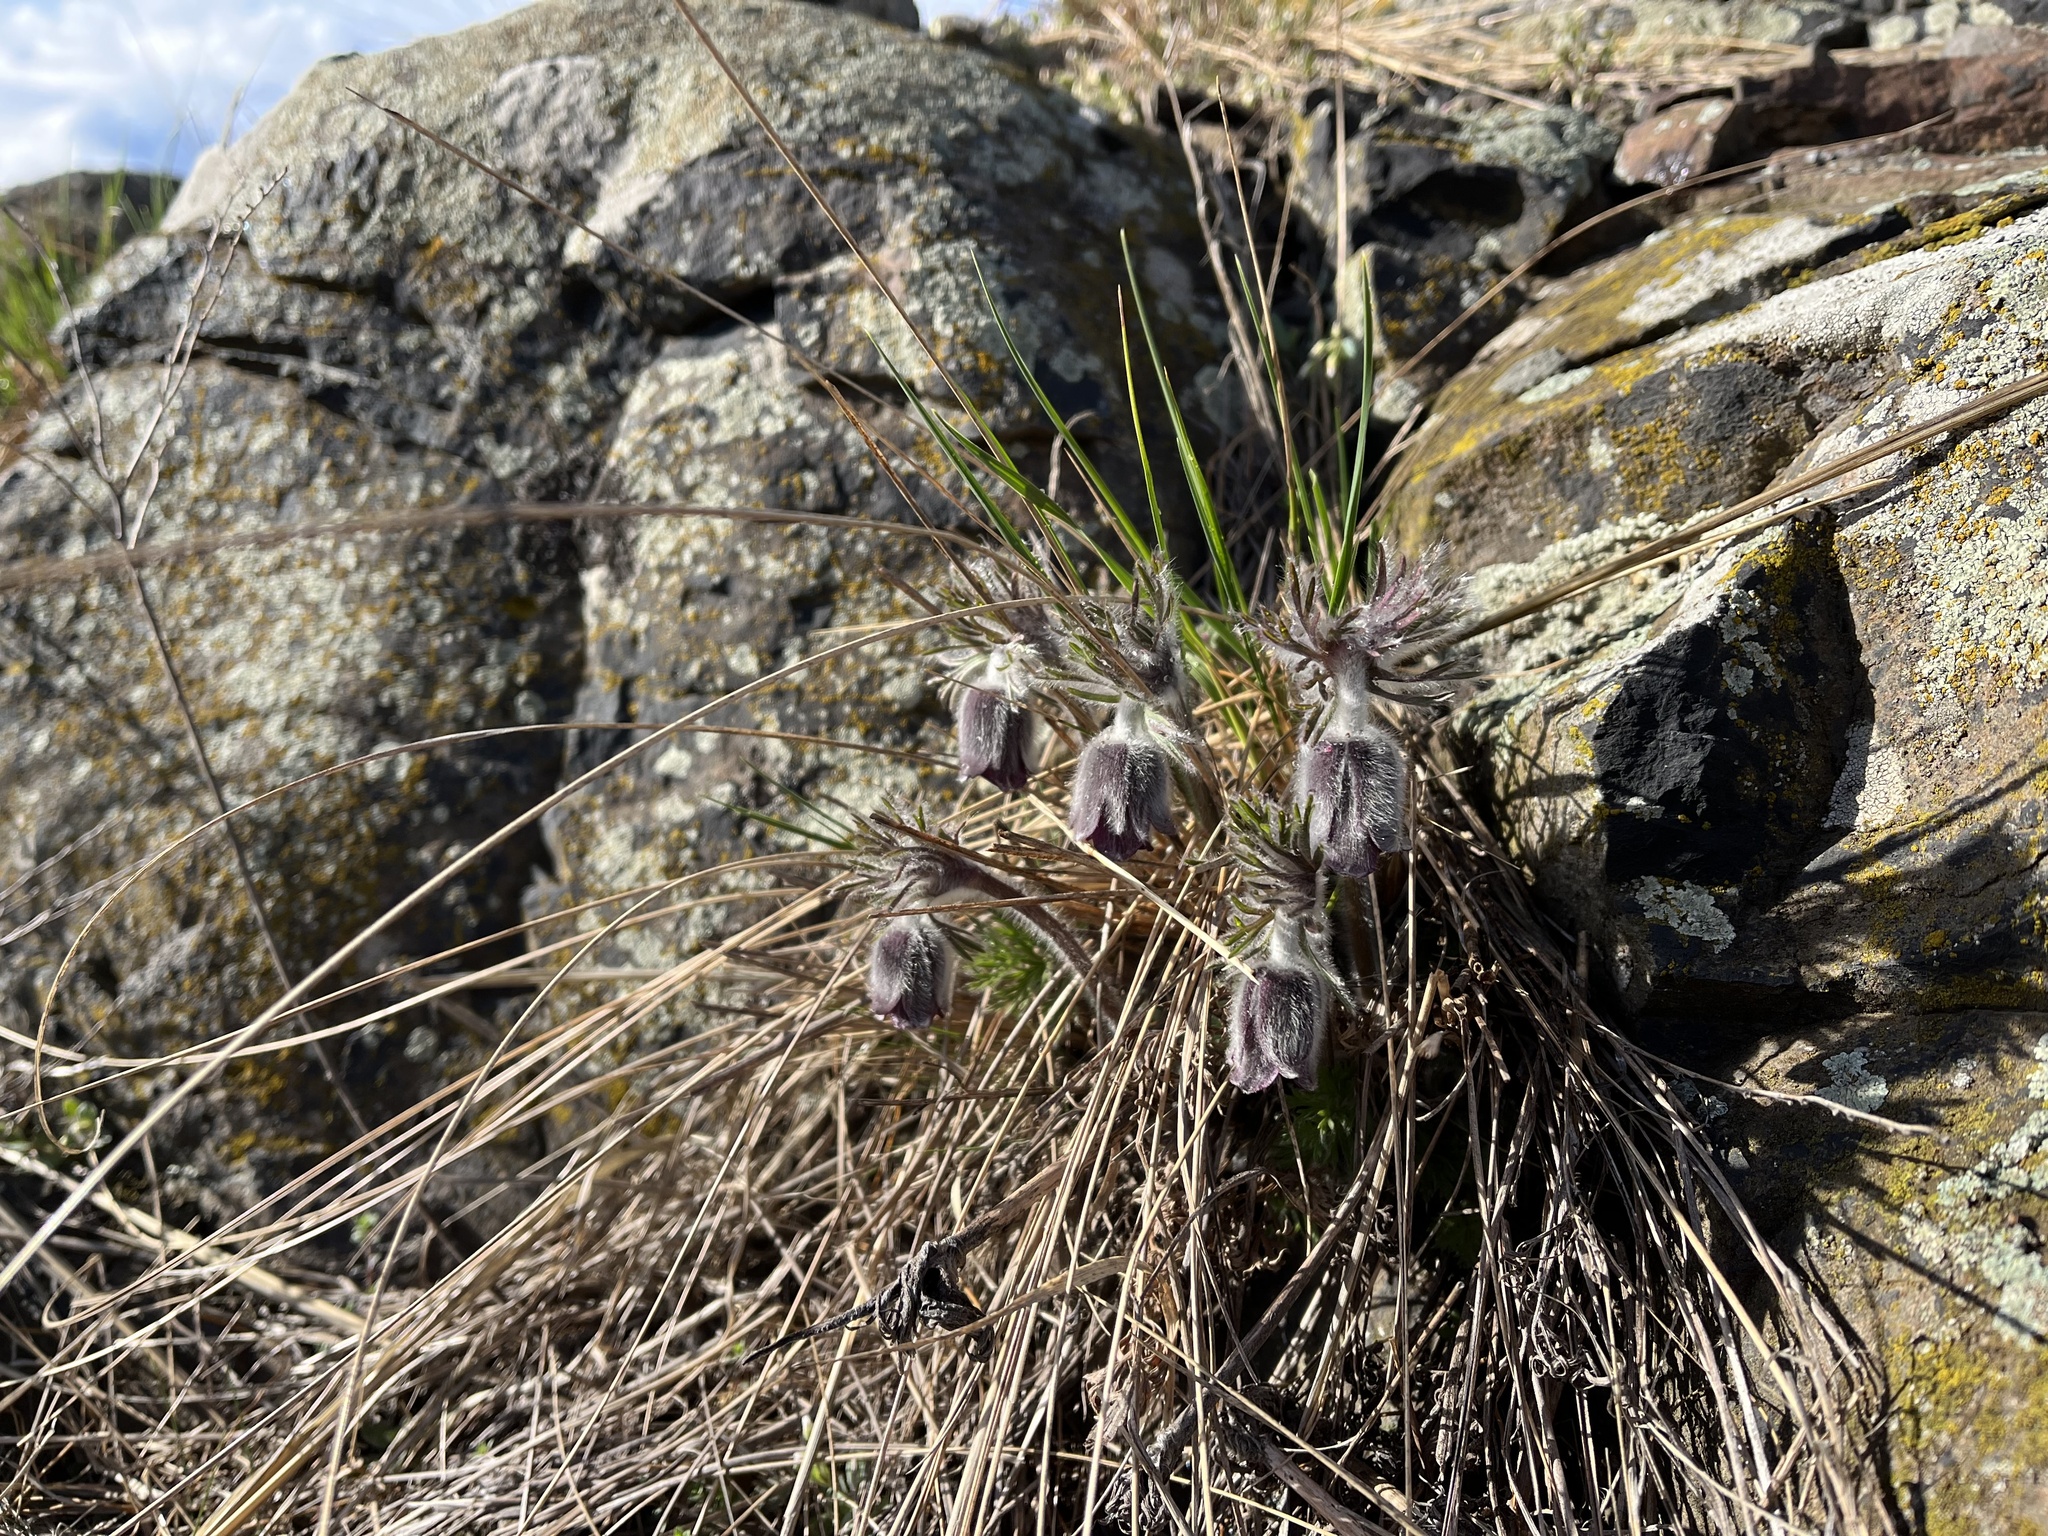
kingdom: Plantae
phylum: Tracheophyta
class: Magnoliopsida
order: Ranunculales
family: Ranunculaceae
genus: Pulsatilla
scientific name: Pulsatilla pratensis
